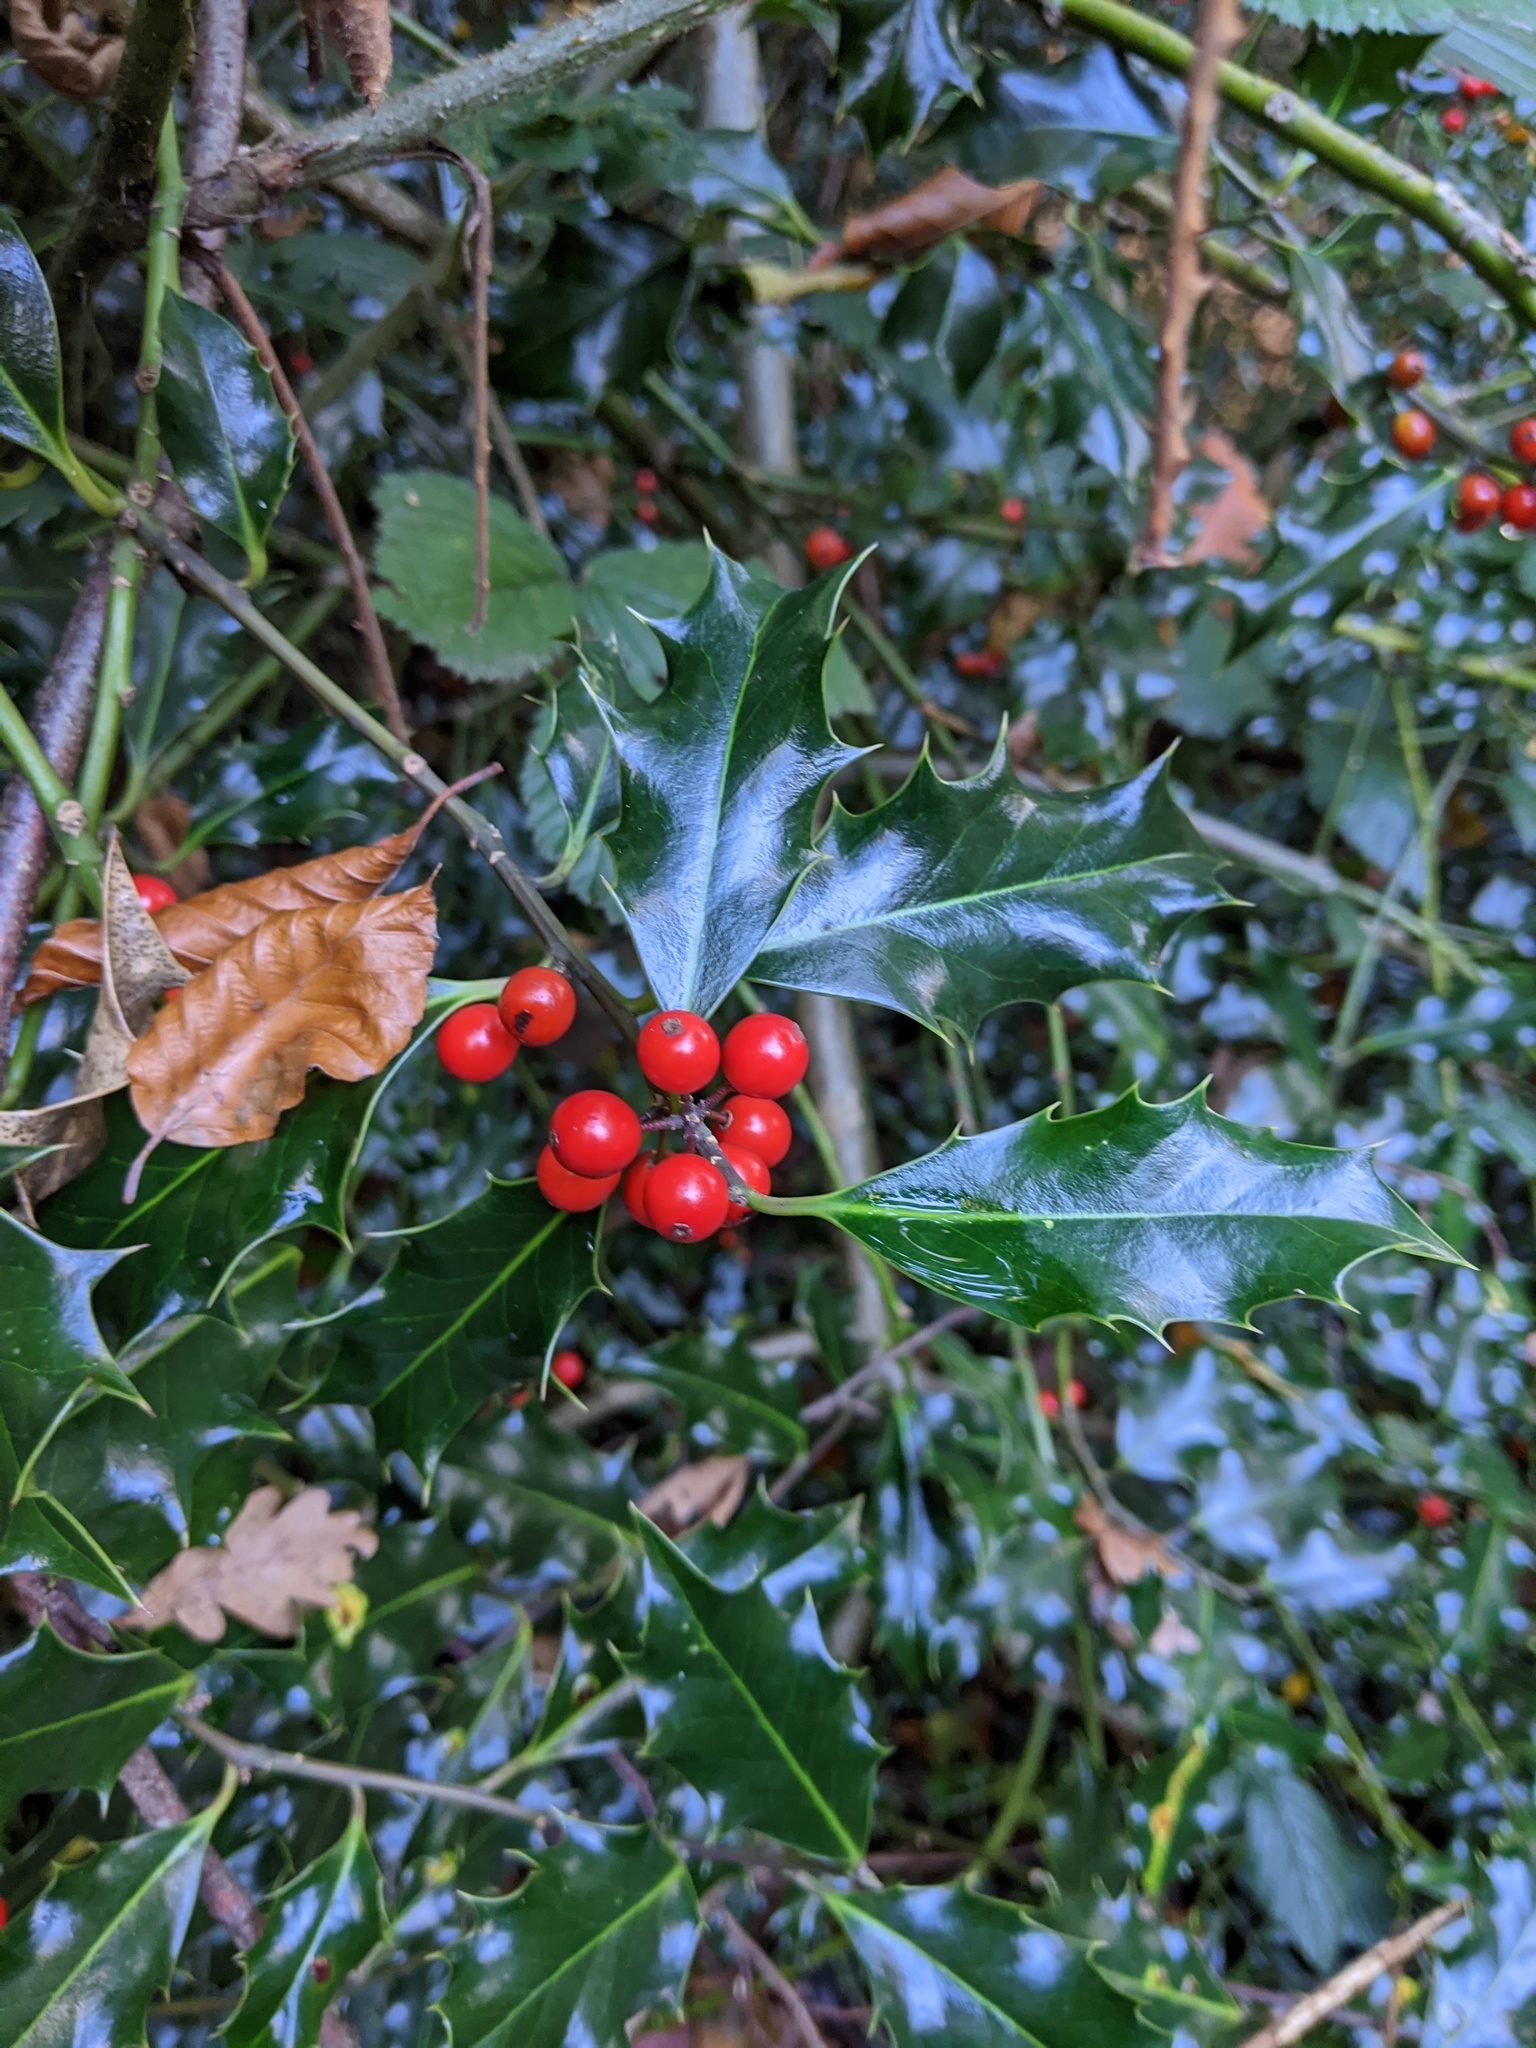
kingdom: Plantae
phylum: Tracheophyta
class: Magnoliopsida
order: Aquifoliales
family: Aquifoliaceae
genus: Ilex
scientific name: Ilex aquifolium
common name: English holly
